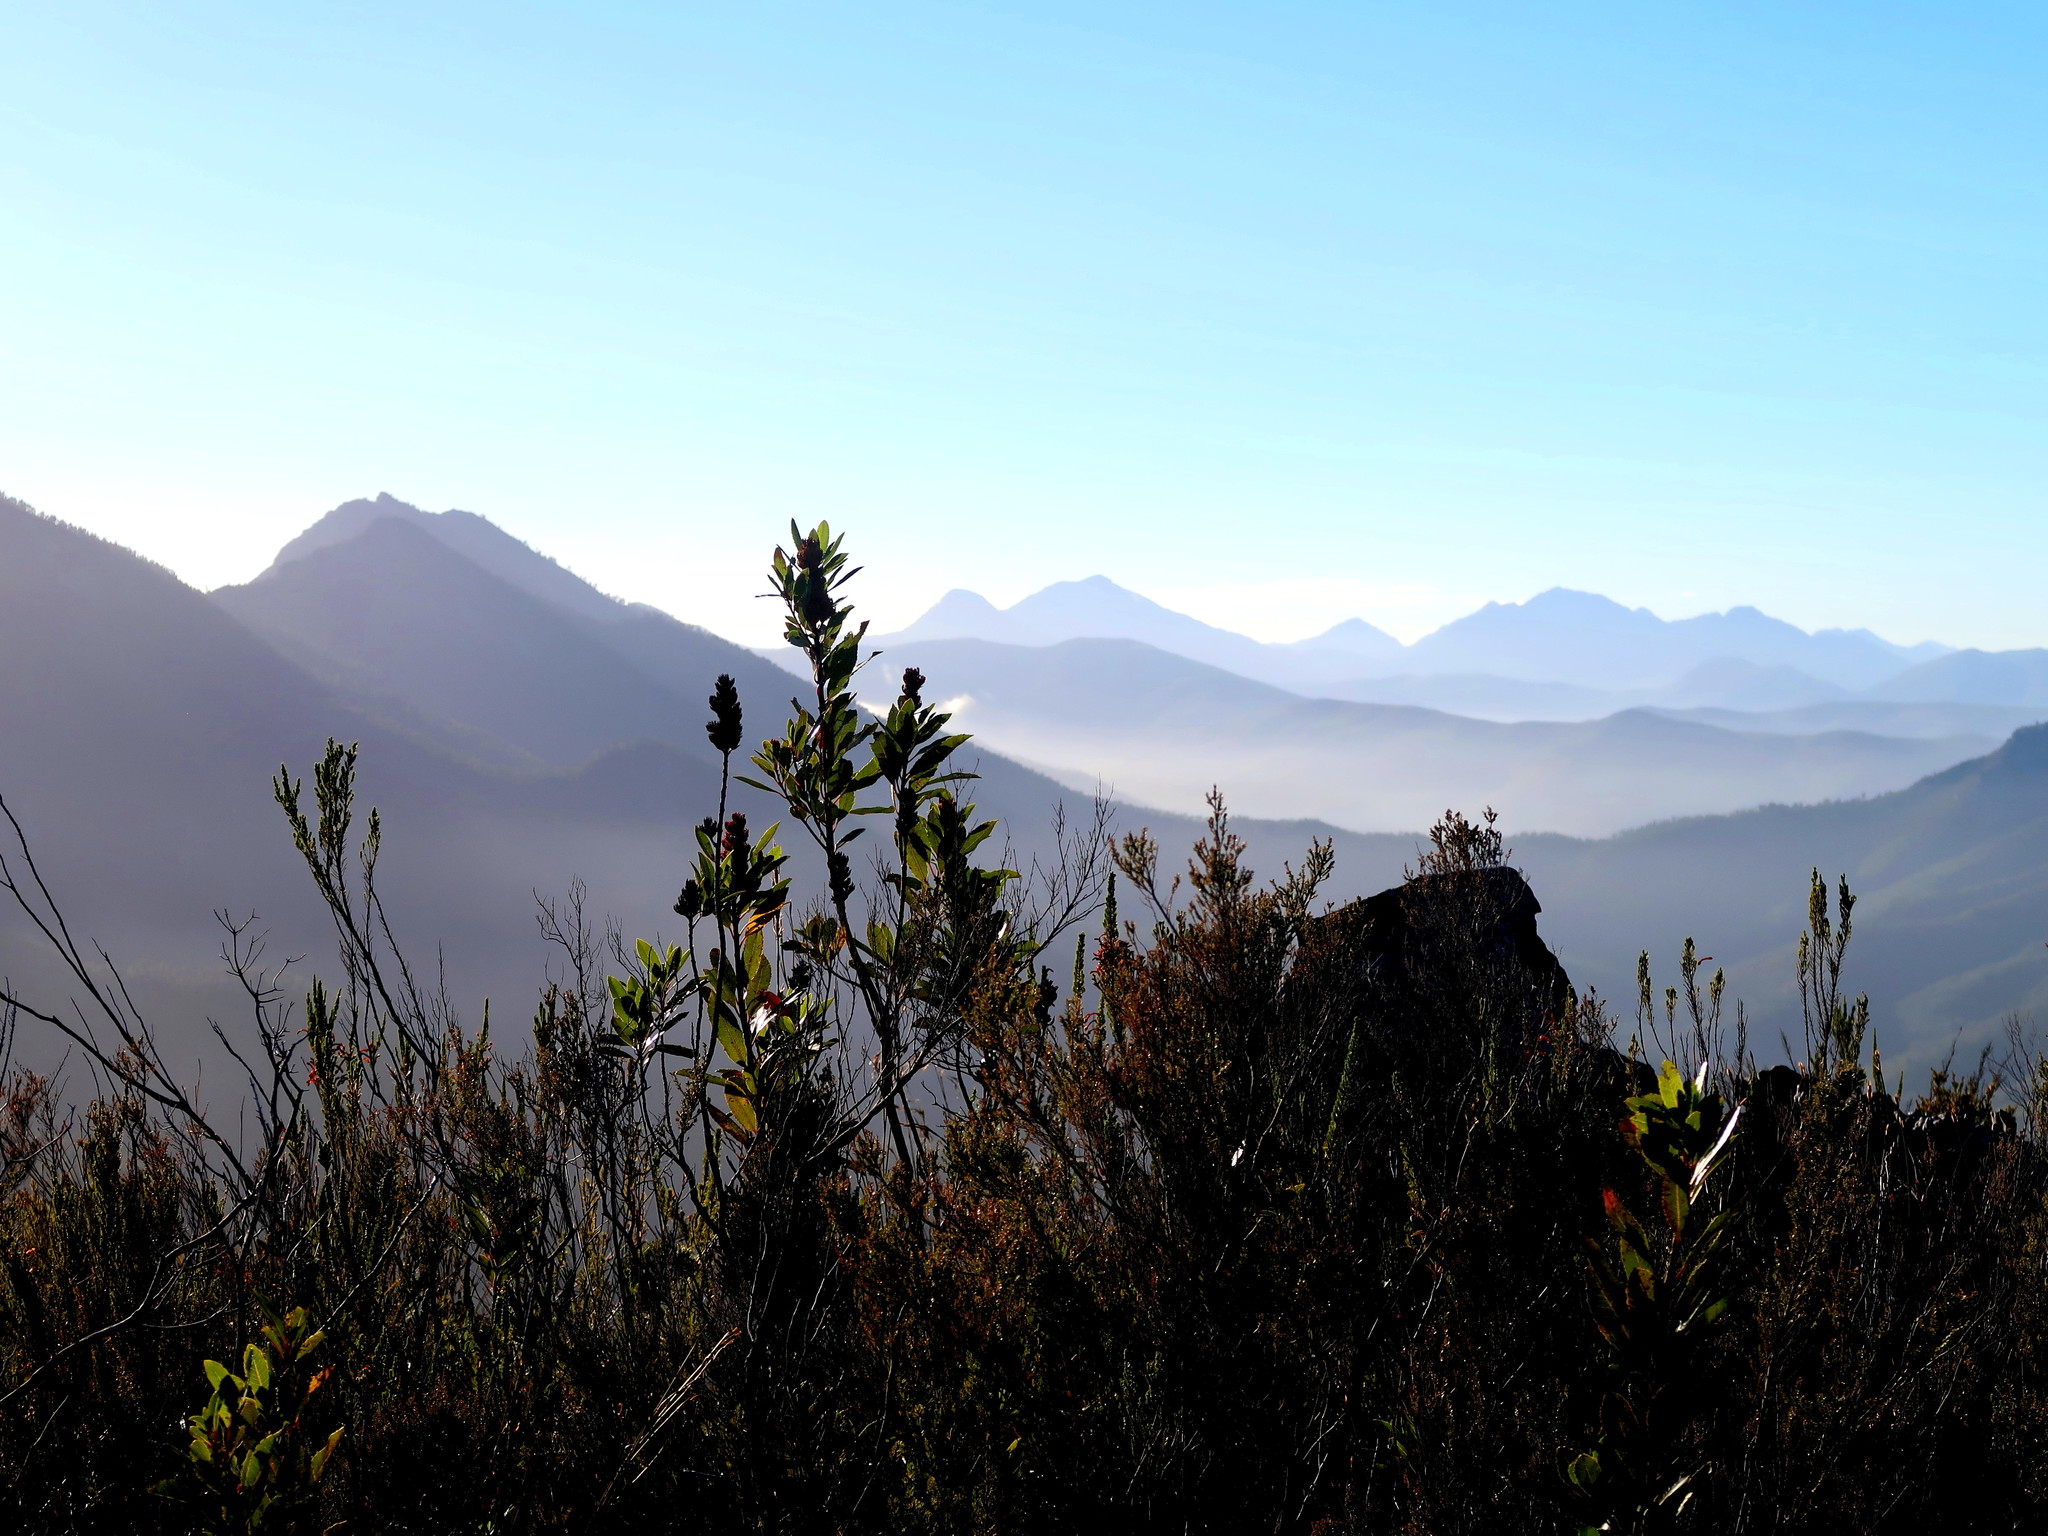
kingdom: Plantae
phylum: Tracheophyta
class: Magnoliopsida
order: Sapindales
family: Anacardiaceae
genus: Laurophyllus
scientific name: Laurophyllus capensis
